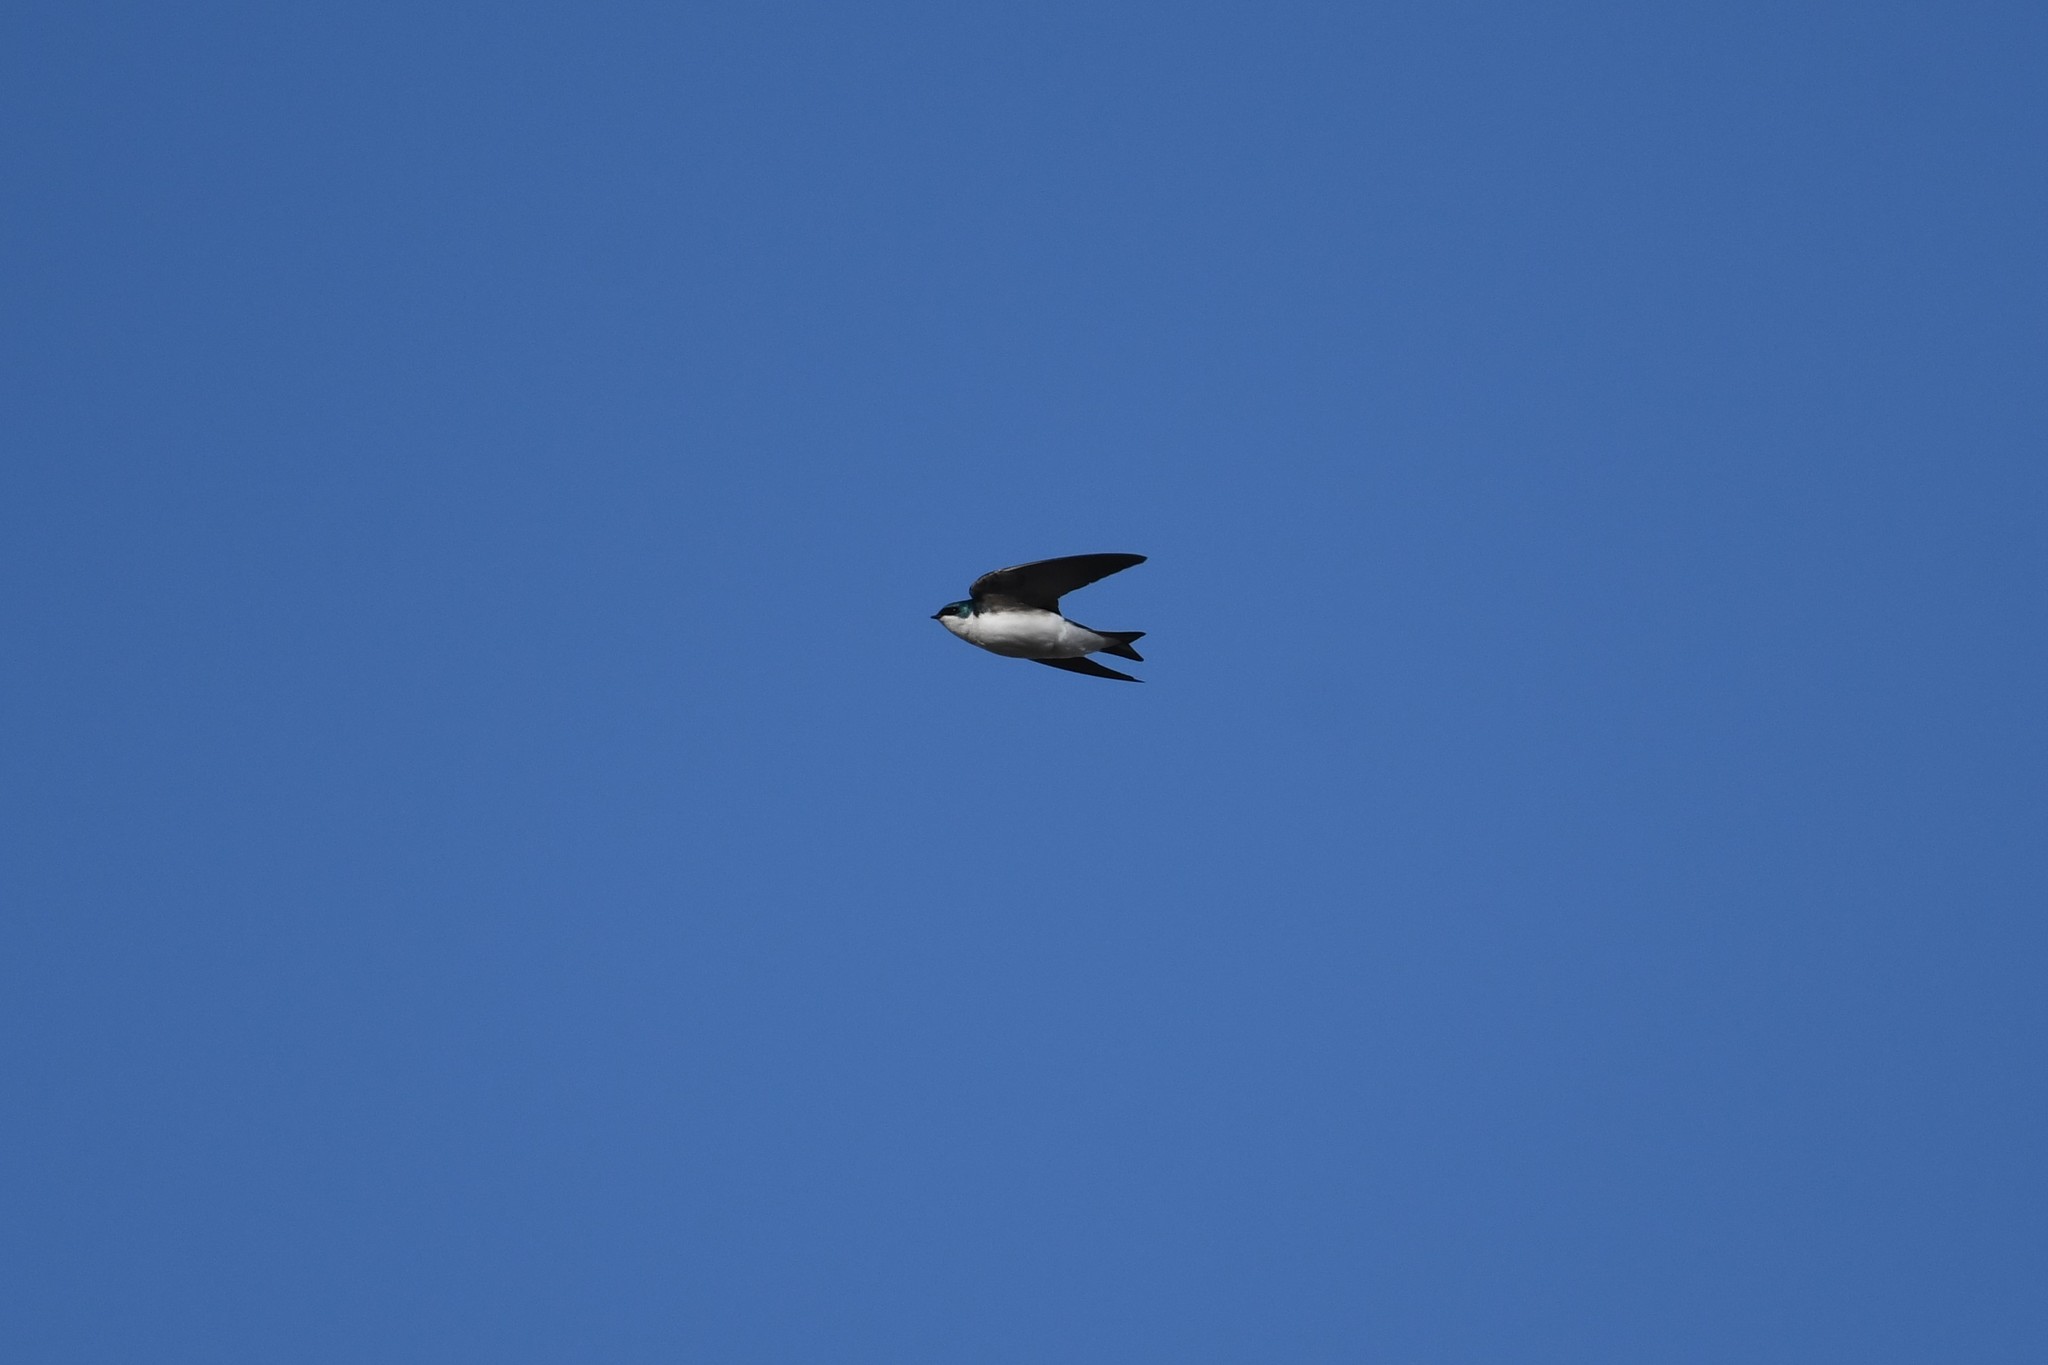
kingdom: Animalia
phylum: Chordata
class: Aves
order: Passeriformes
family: Hirundinidae
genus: Tachycineta
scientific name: Tachycineta bicolor
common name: Tree swallow
